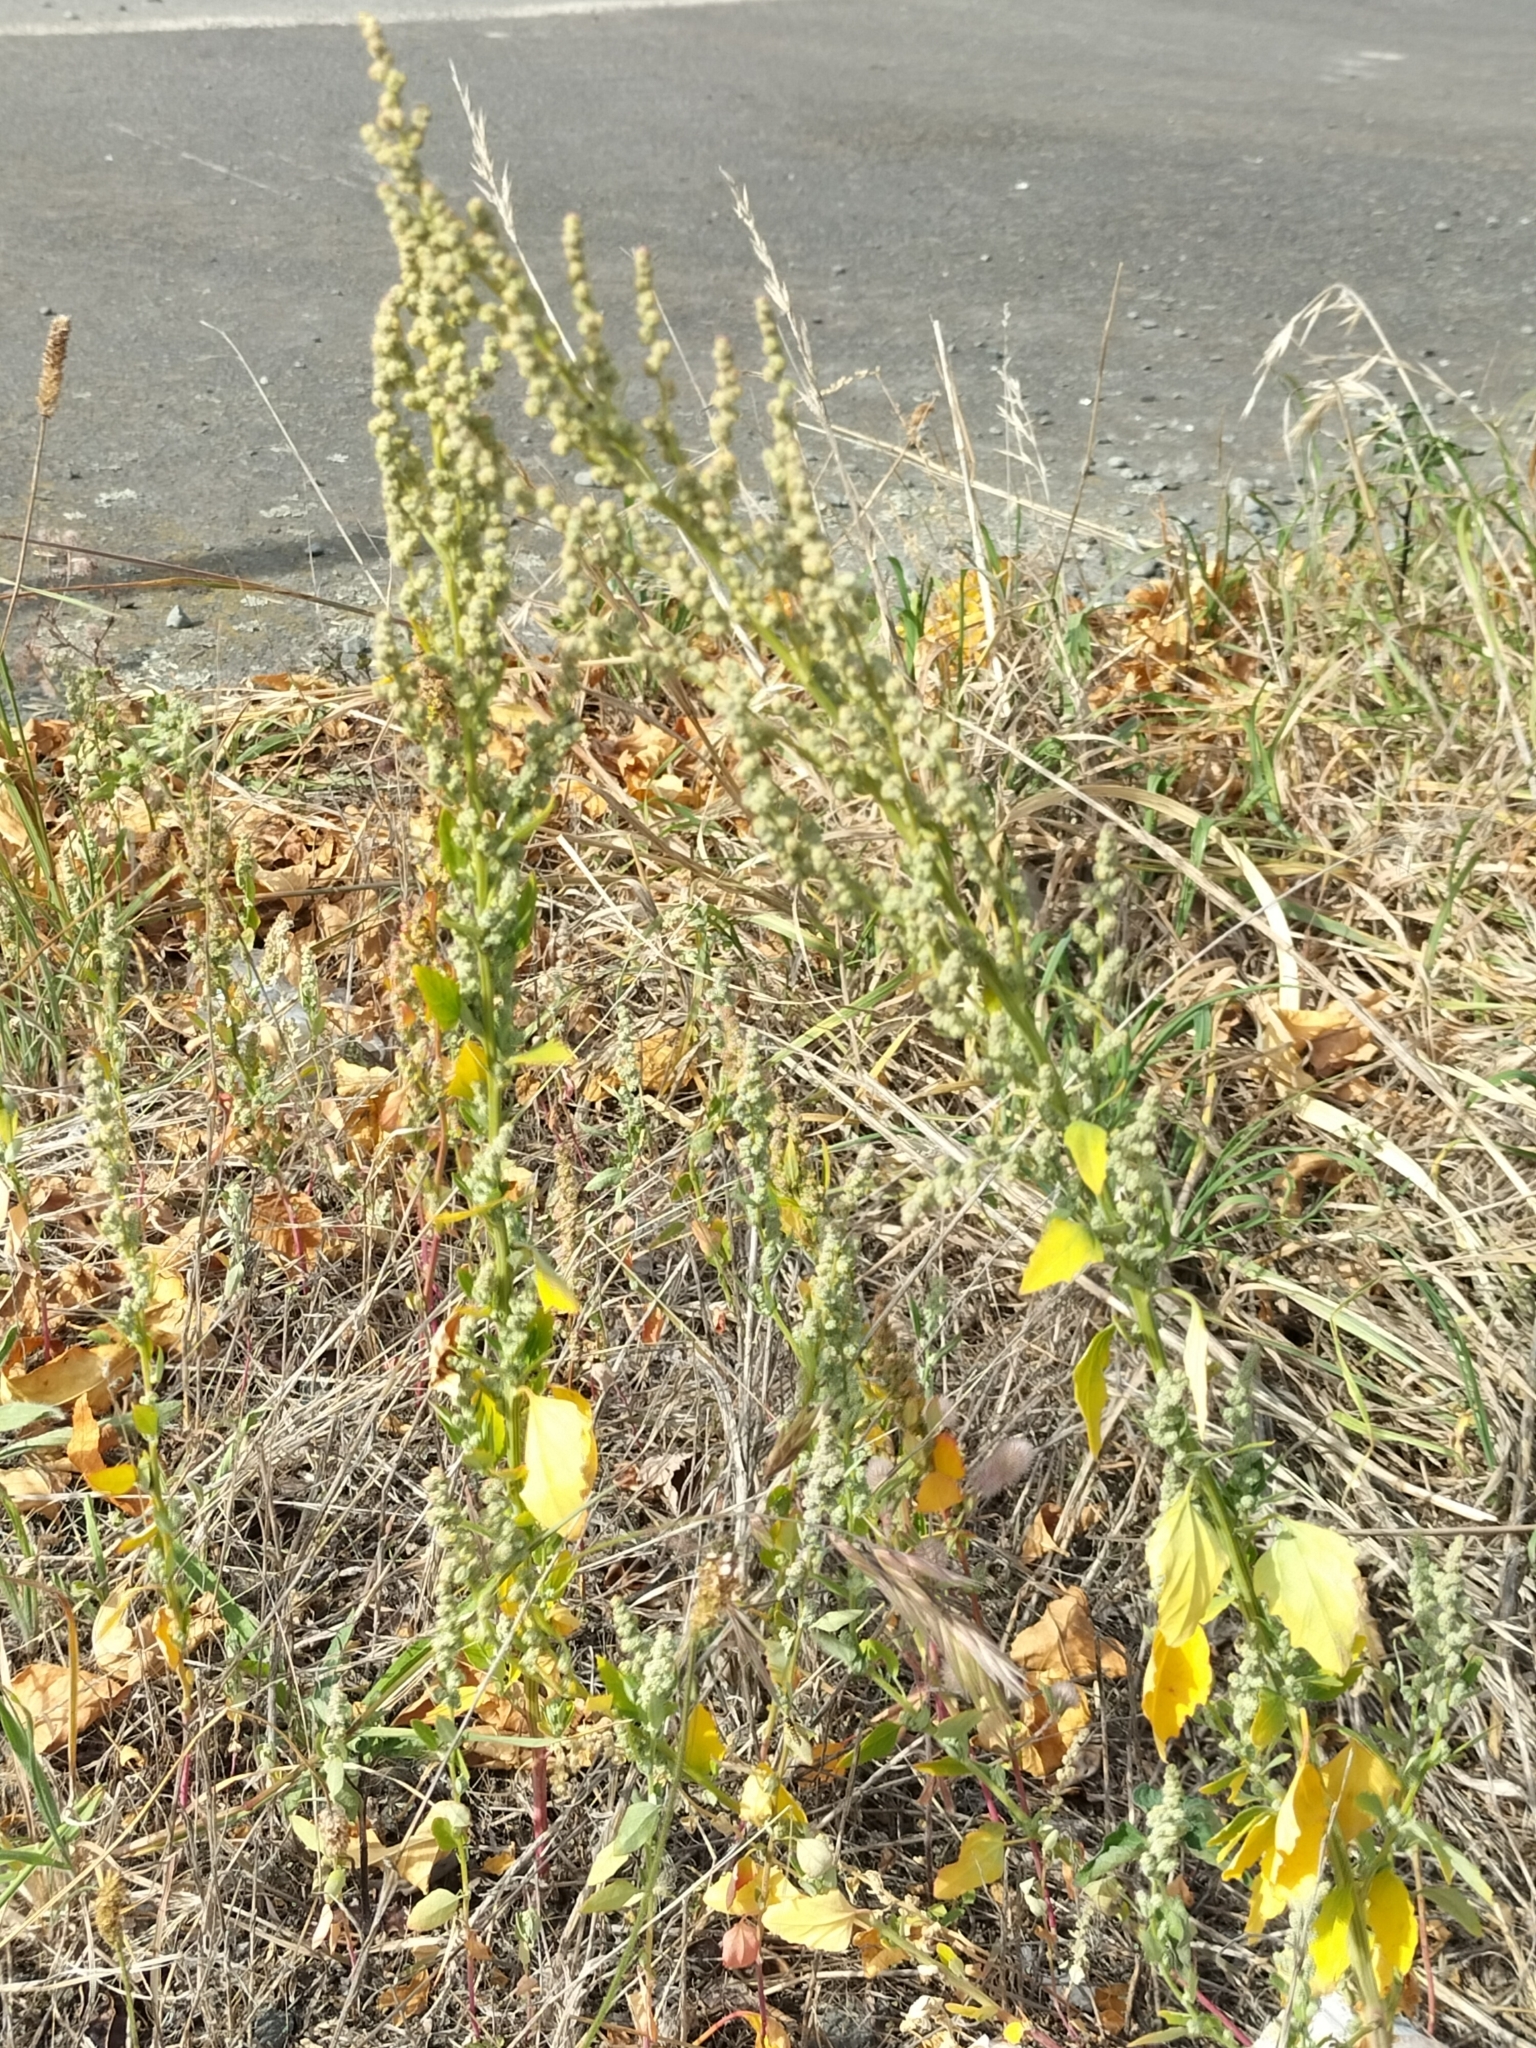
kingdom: Plantae
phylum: Tracheophyta
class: Magnoliopsida
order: Caryophyllales
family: Amaranthaceae
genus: Chenopodium
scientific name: Chenopodium album
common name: Fat-hen
